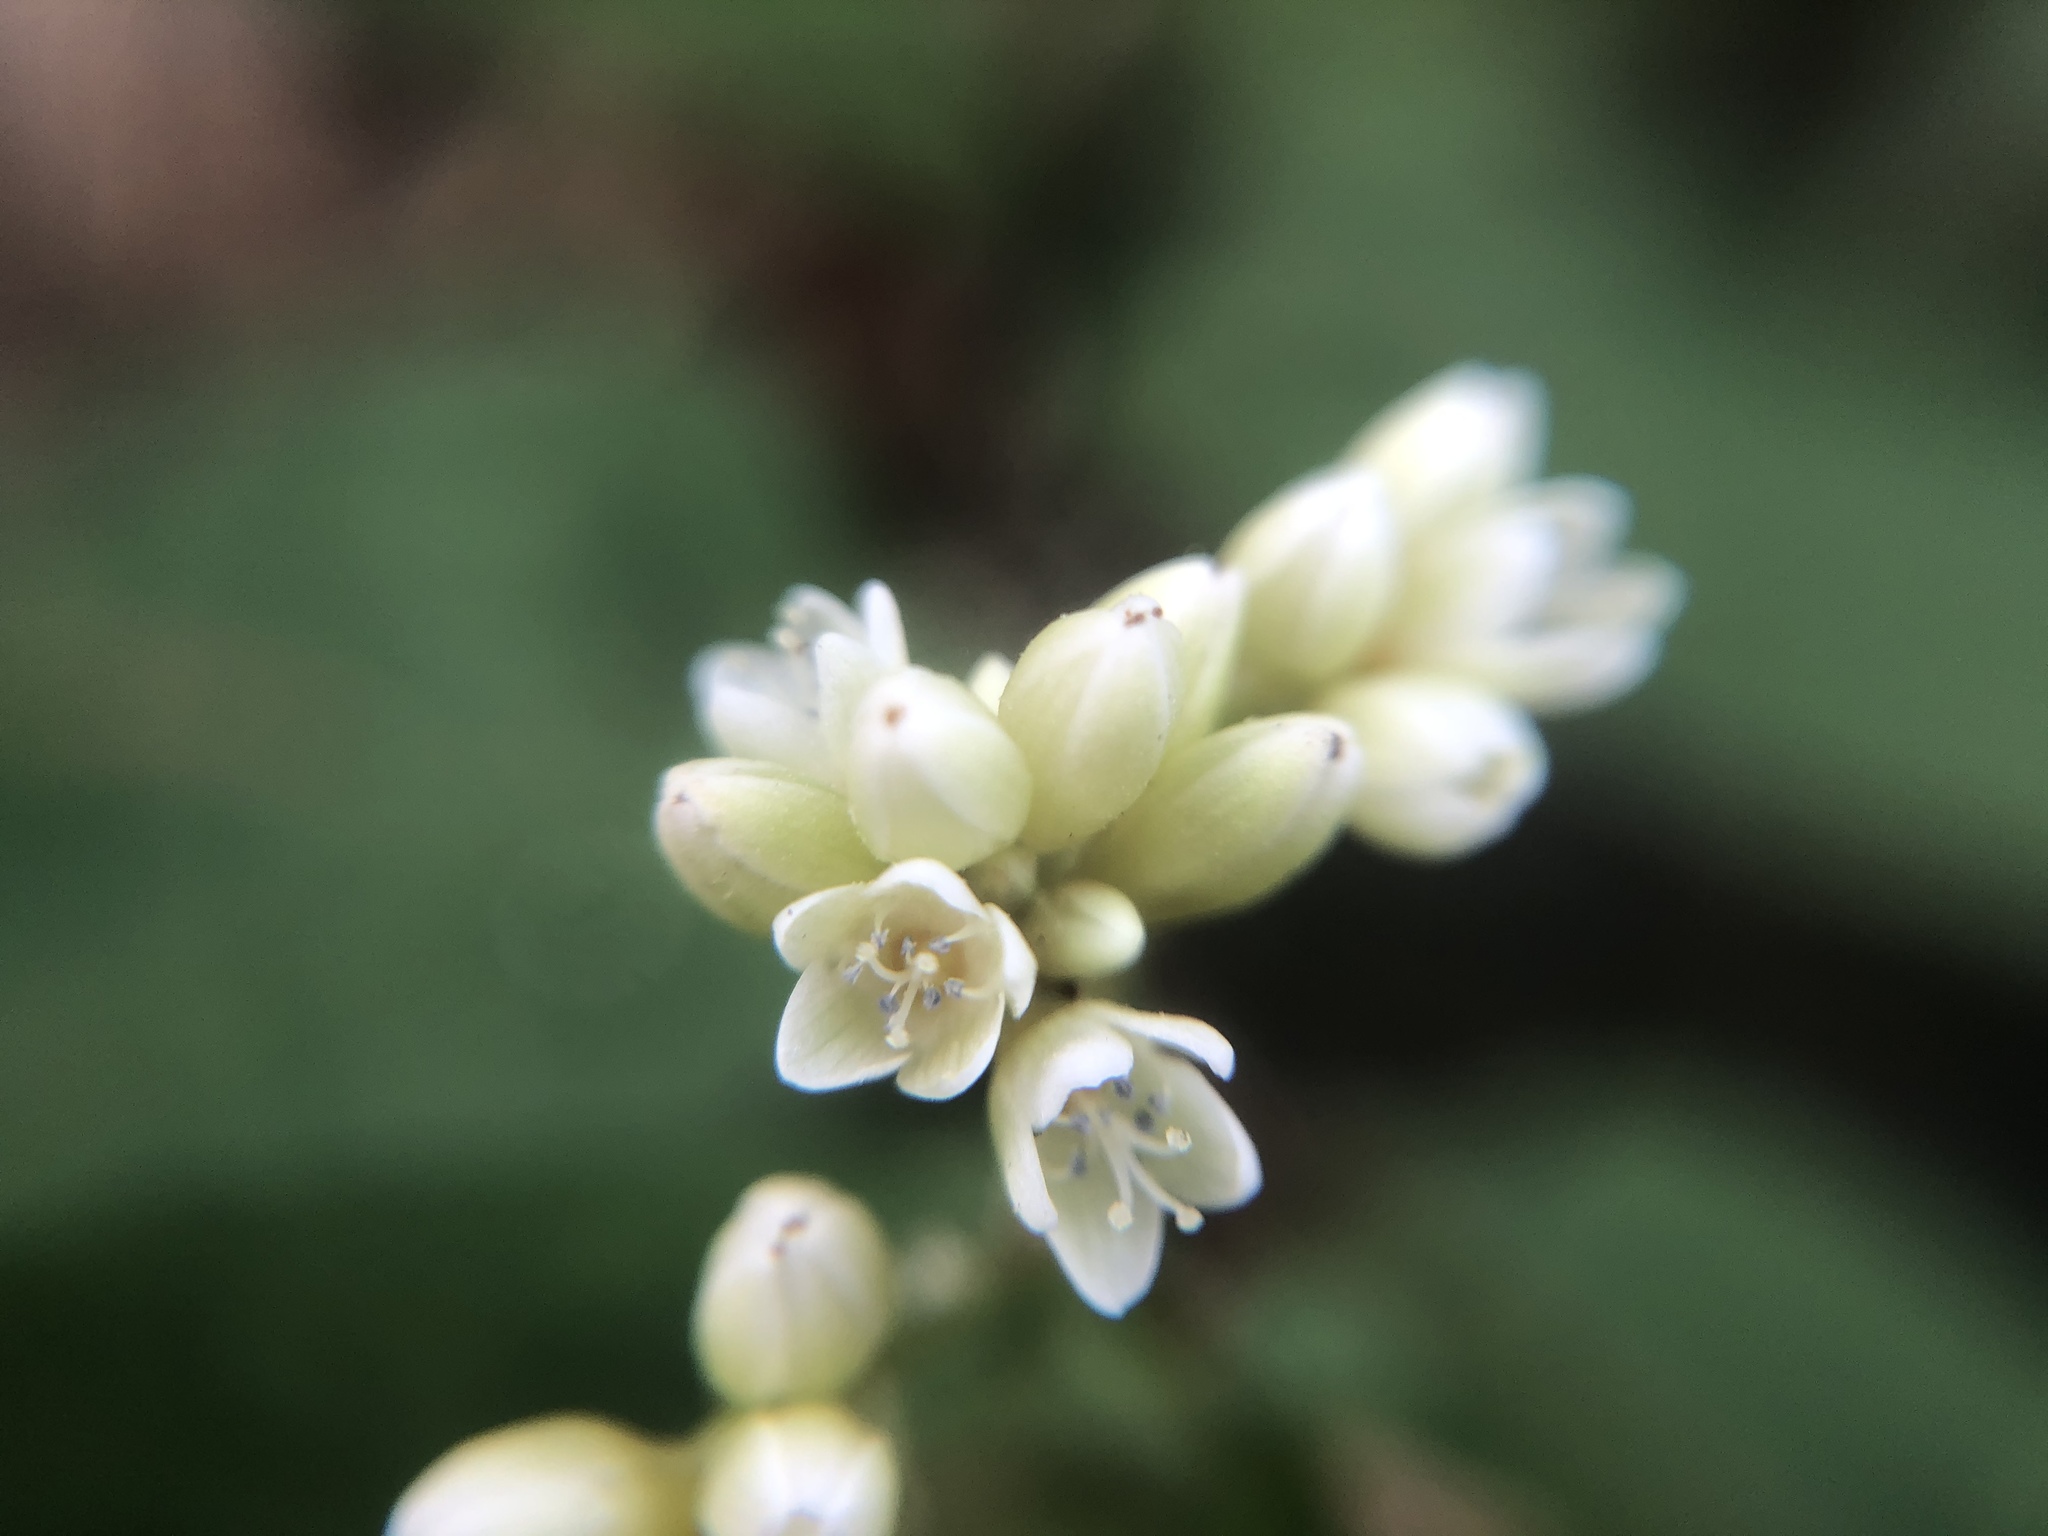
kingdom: Plantae
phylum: Tracheophyta
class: Magnoliopsida
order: Caryophyllales
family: Polygonaceae
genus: Persicaria
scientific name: Persicaria chinensis
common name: Chinese knotweed
